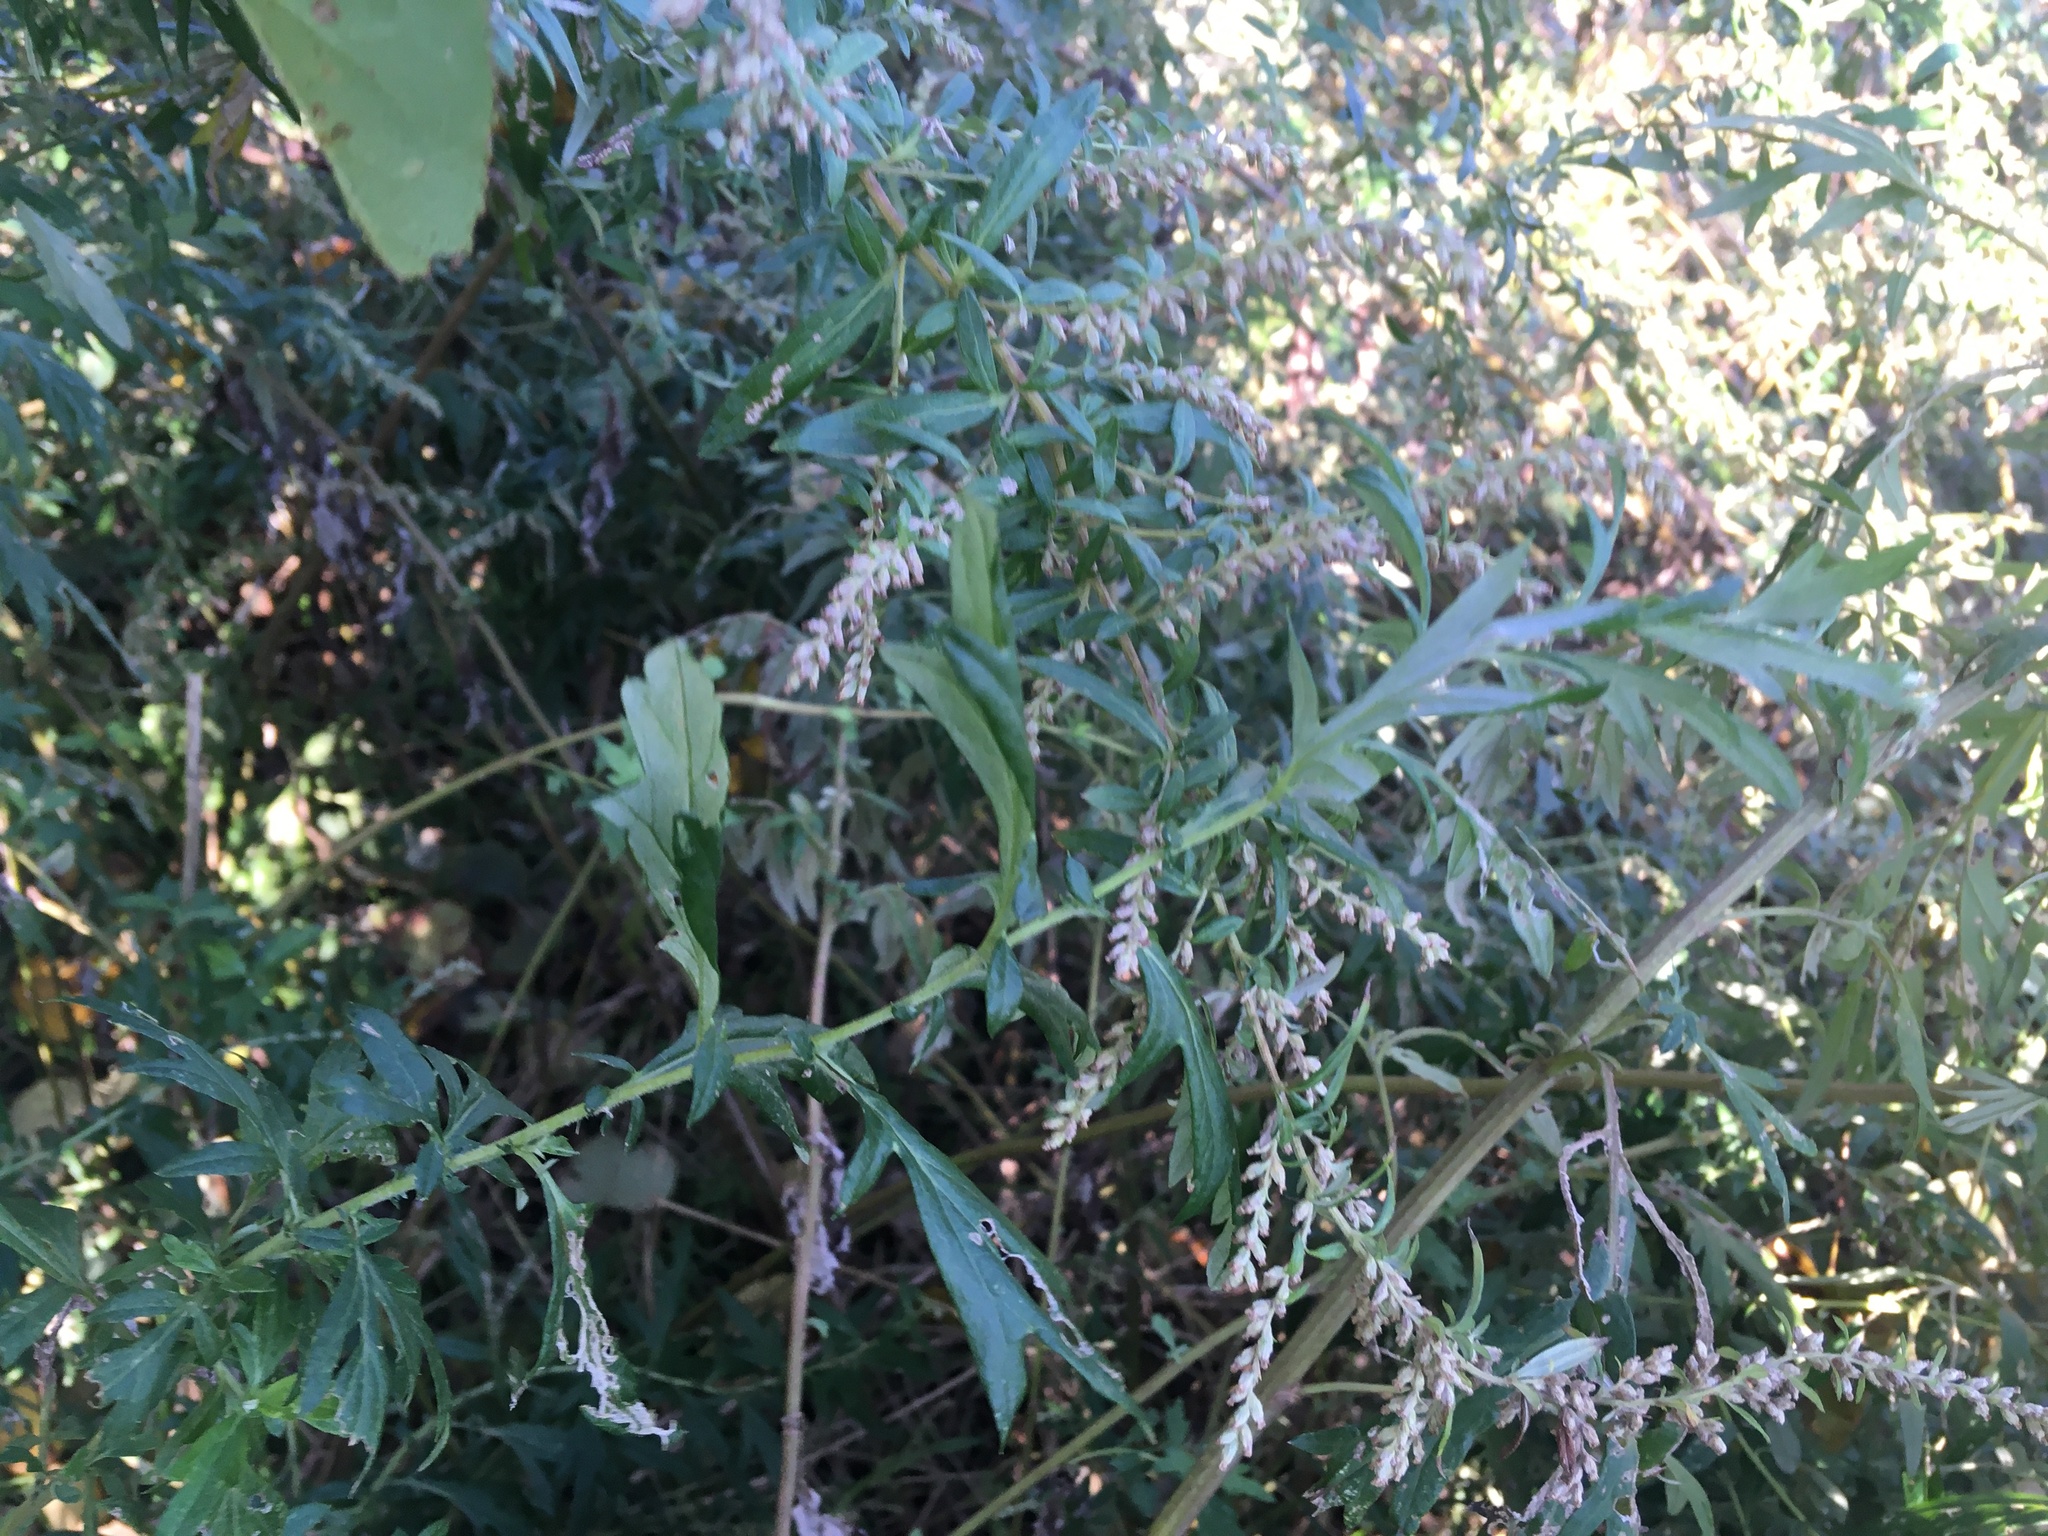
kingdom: Plantae
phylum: Tracheophyta
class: Magnoliopsida
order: Asterales
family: Asteraceae
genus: Artemisia
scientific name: Artemisia vulgaris
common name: Mugwort
